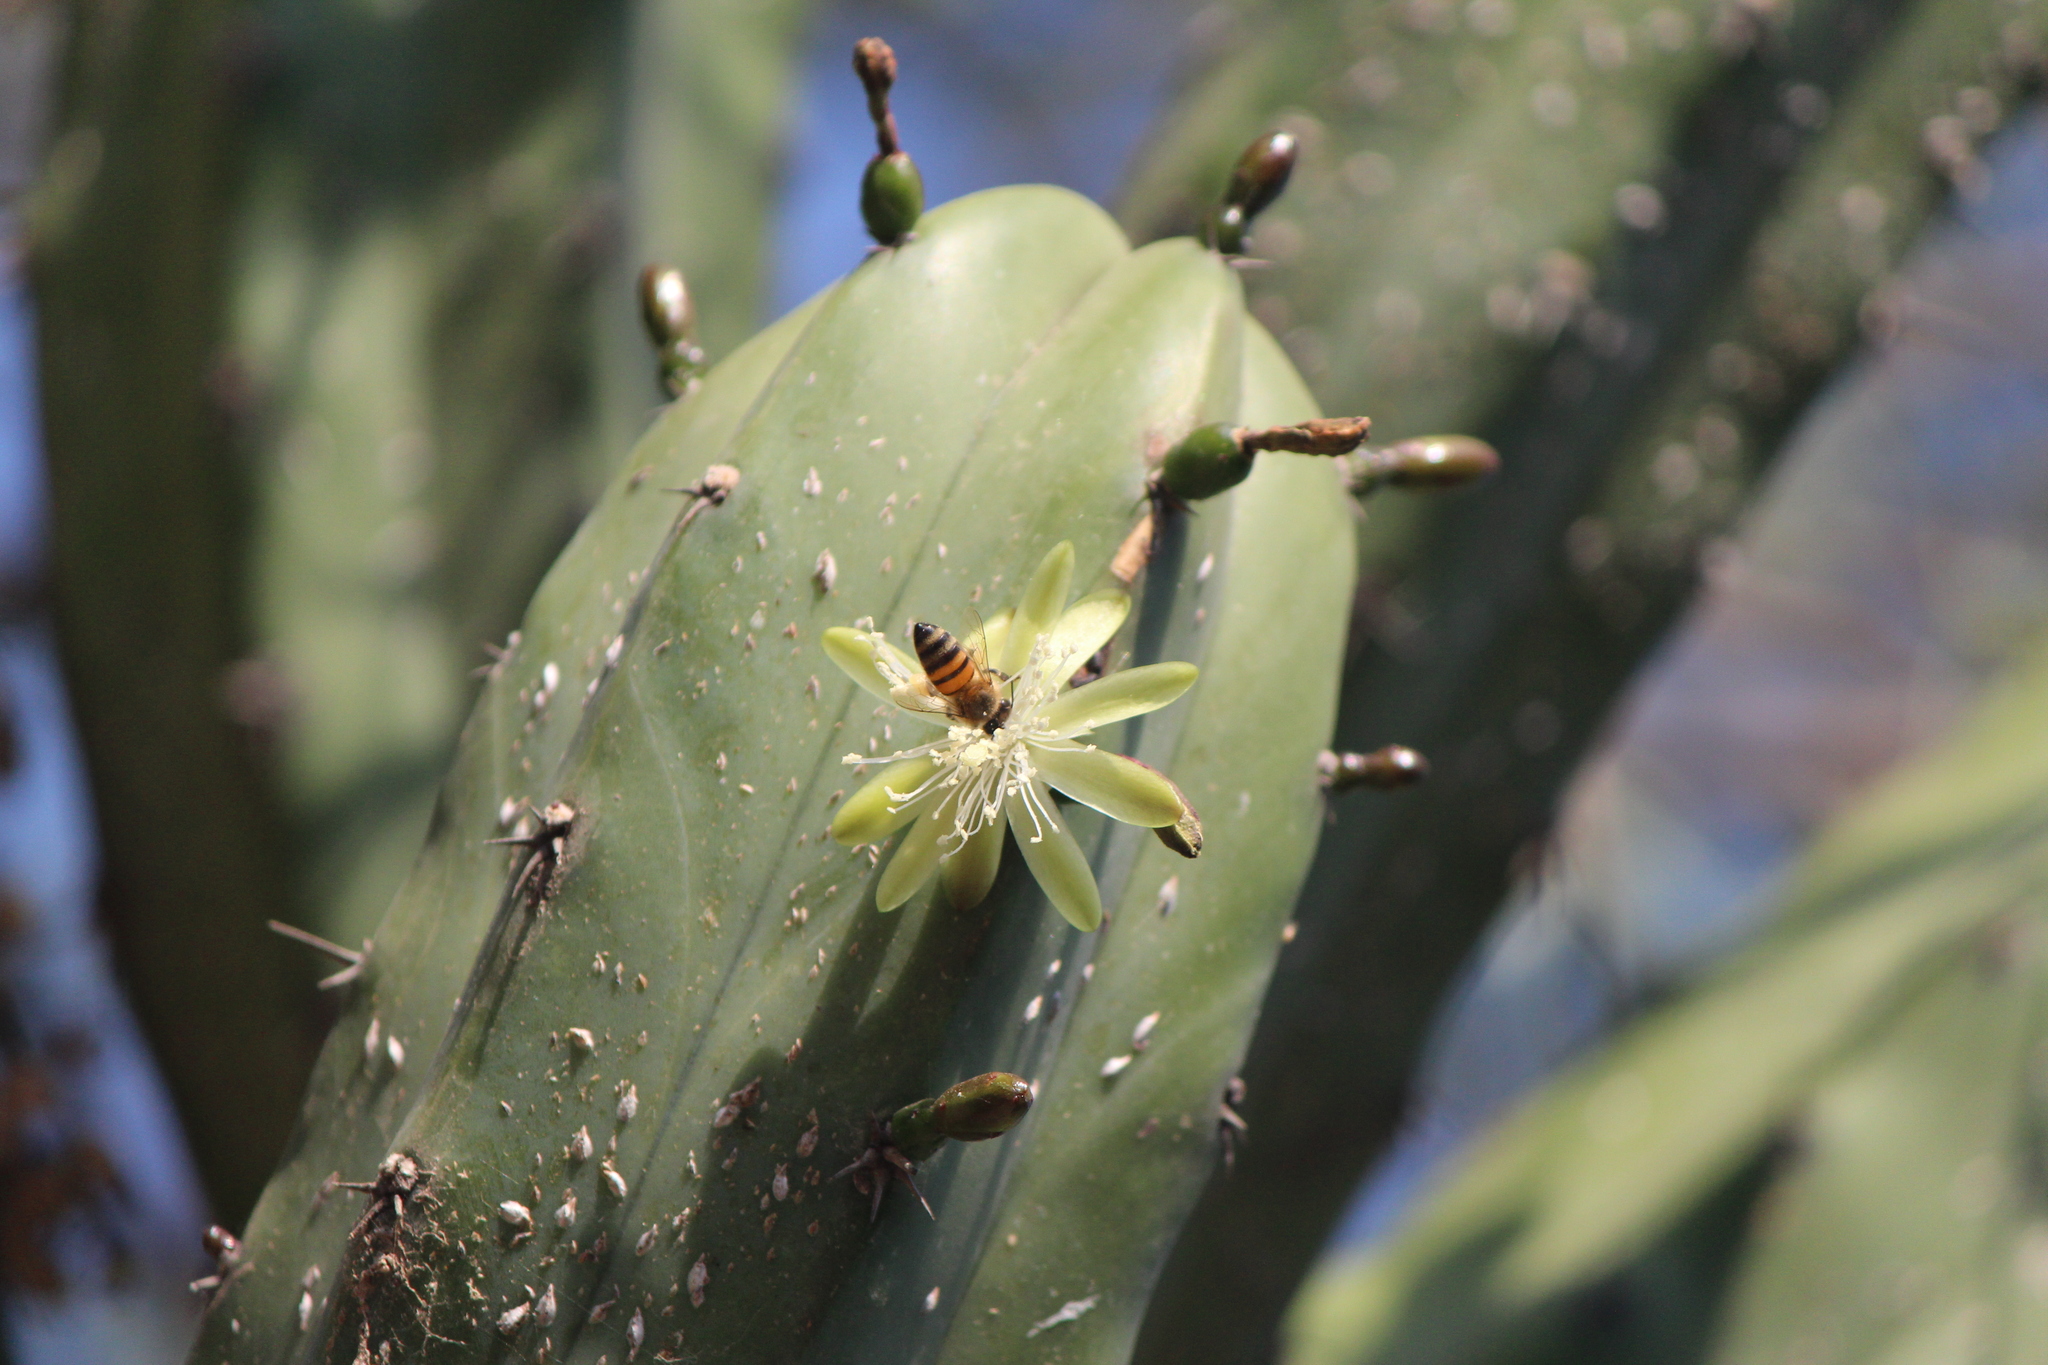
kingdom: Animalia
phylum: Arthropoda
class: Insecta
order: Hymenoptera
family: Apidae
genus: Apis
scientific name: Apis mellifera
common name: Honey bee
